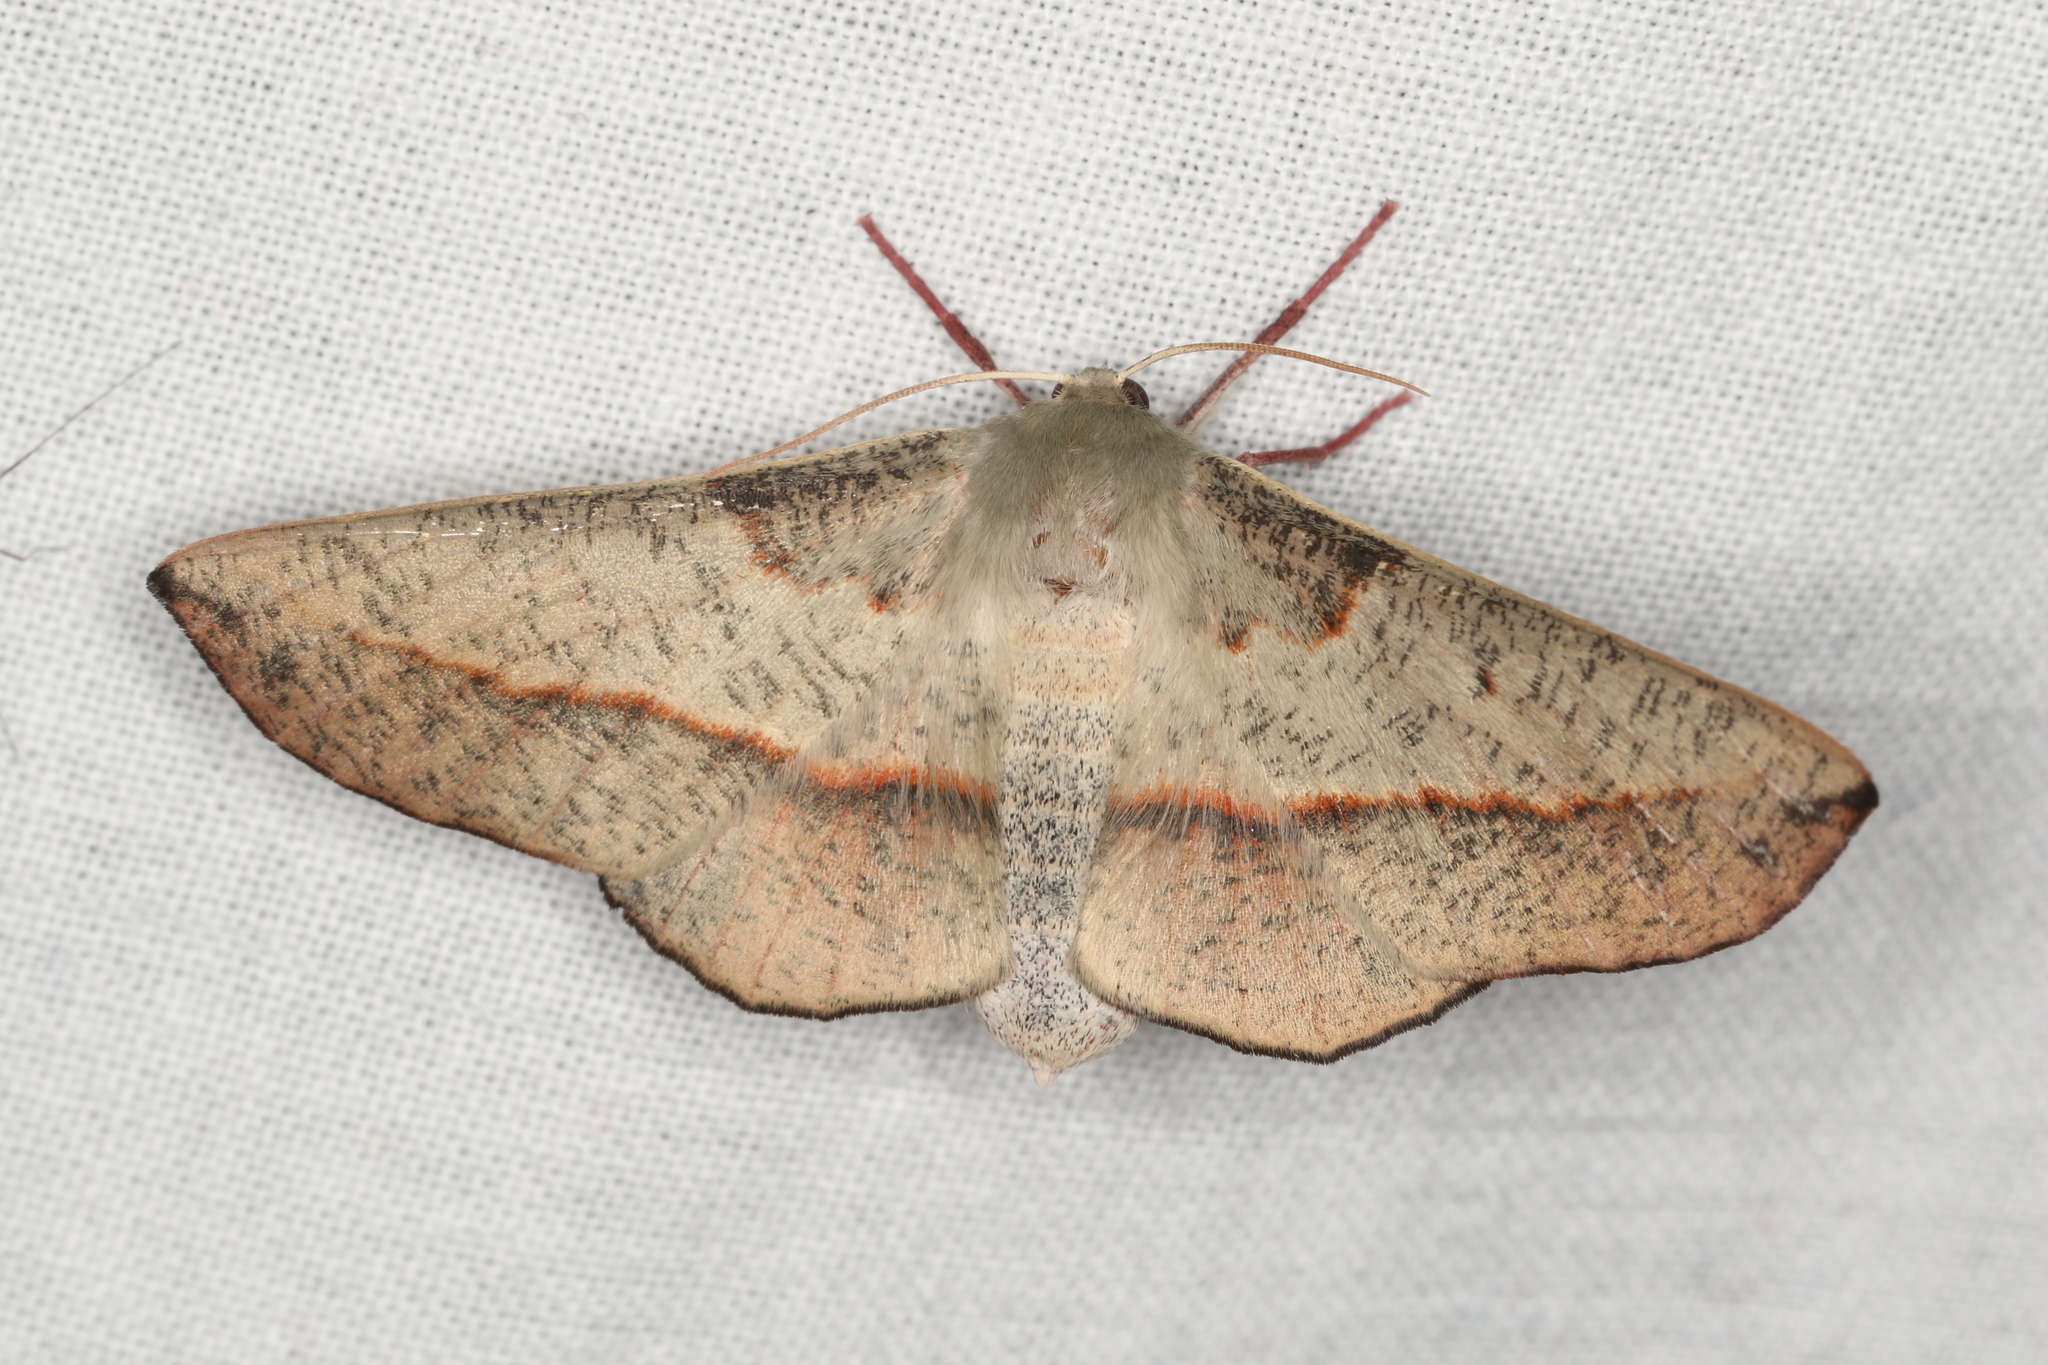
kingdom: Animalia
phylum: Arthropoda
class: Insecta
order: Lepidoptera
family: Geometridae
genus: Antictenia
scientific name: Antictenia punctunculus
